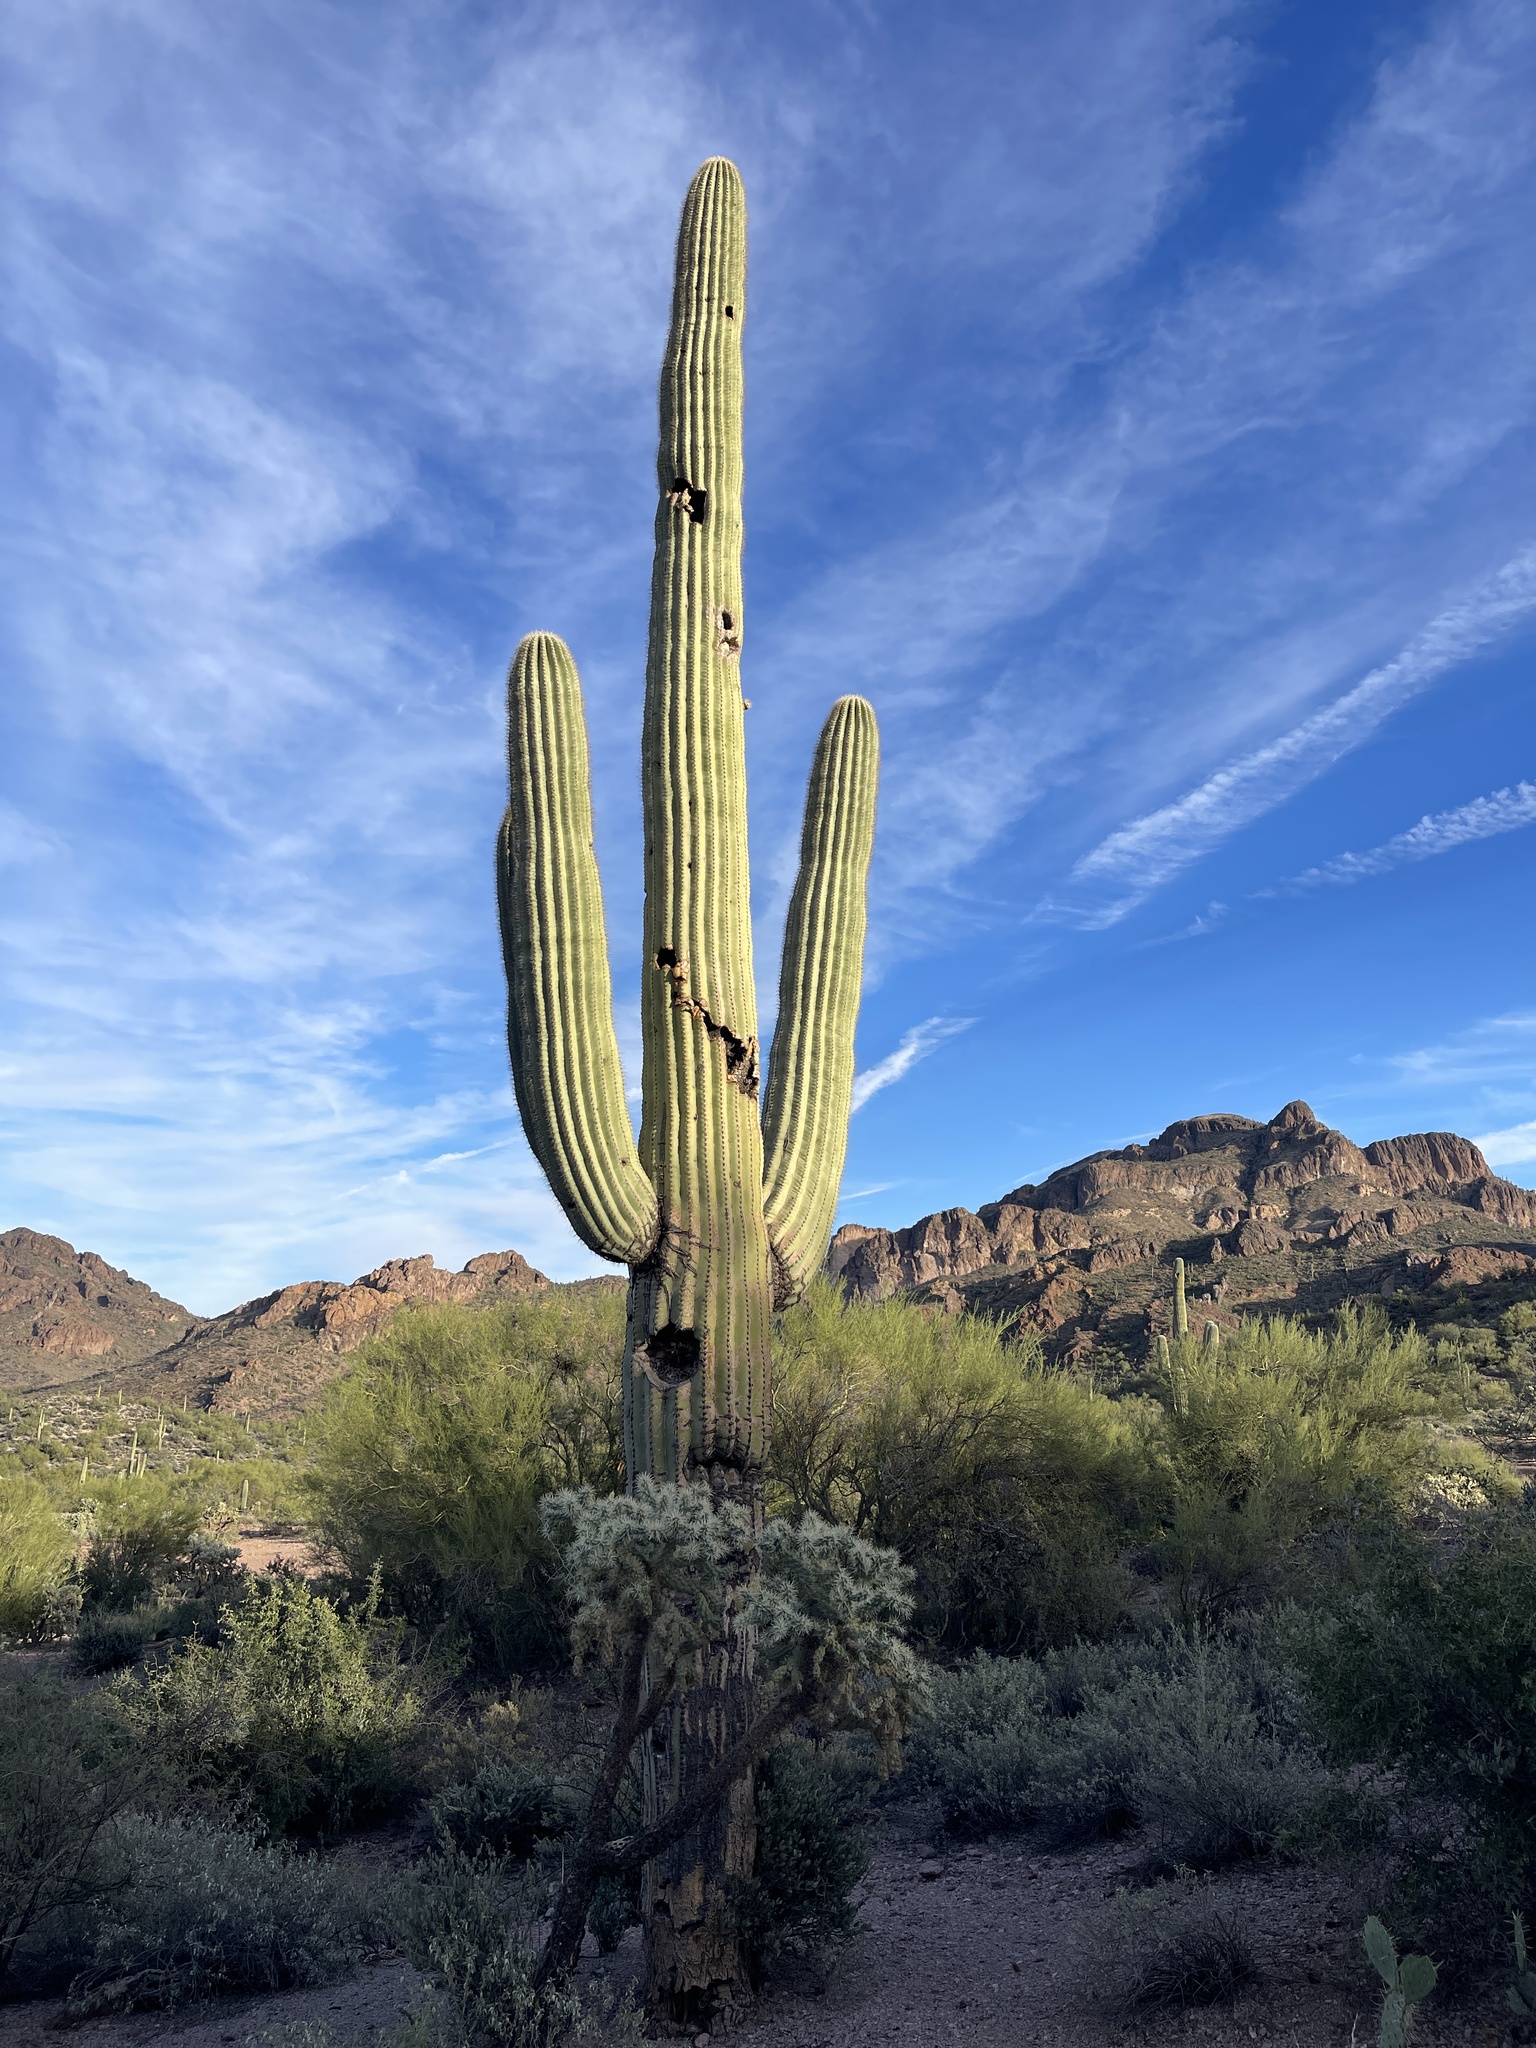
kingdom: Plantae
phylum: Tracheophyta
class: Magnoliopsida
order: Caryophyllales
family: Cactaceae
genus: Carnegiea
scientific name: Carnegiea gigantea
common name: Saguaro
